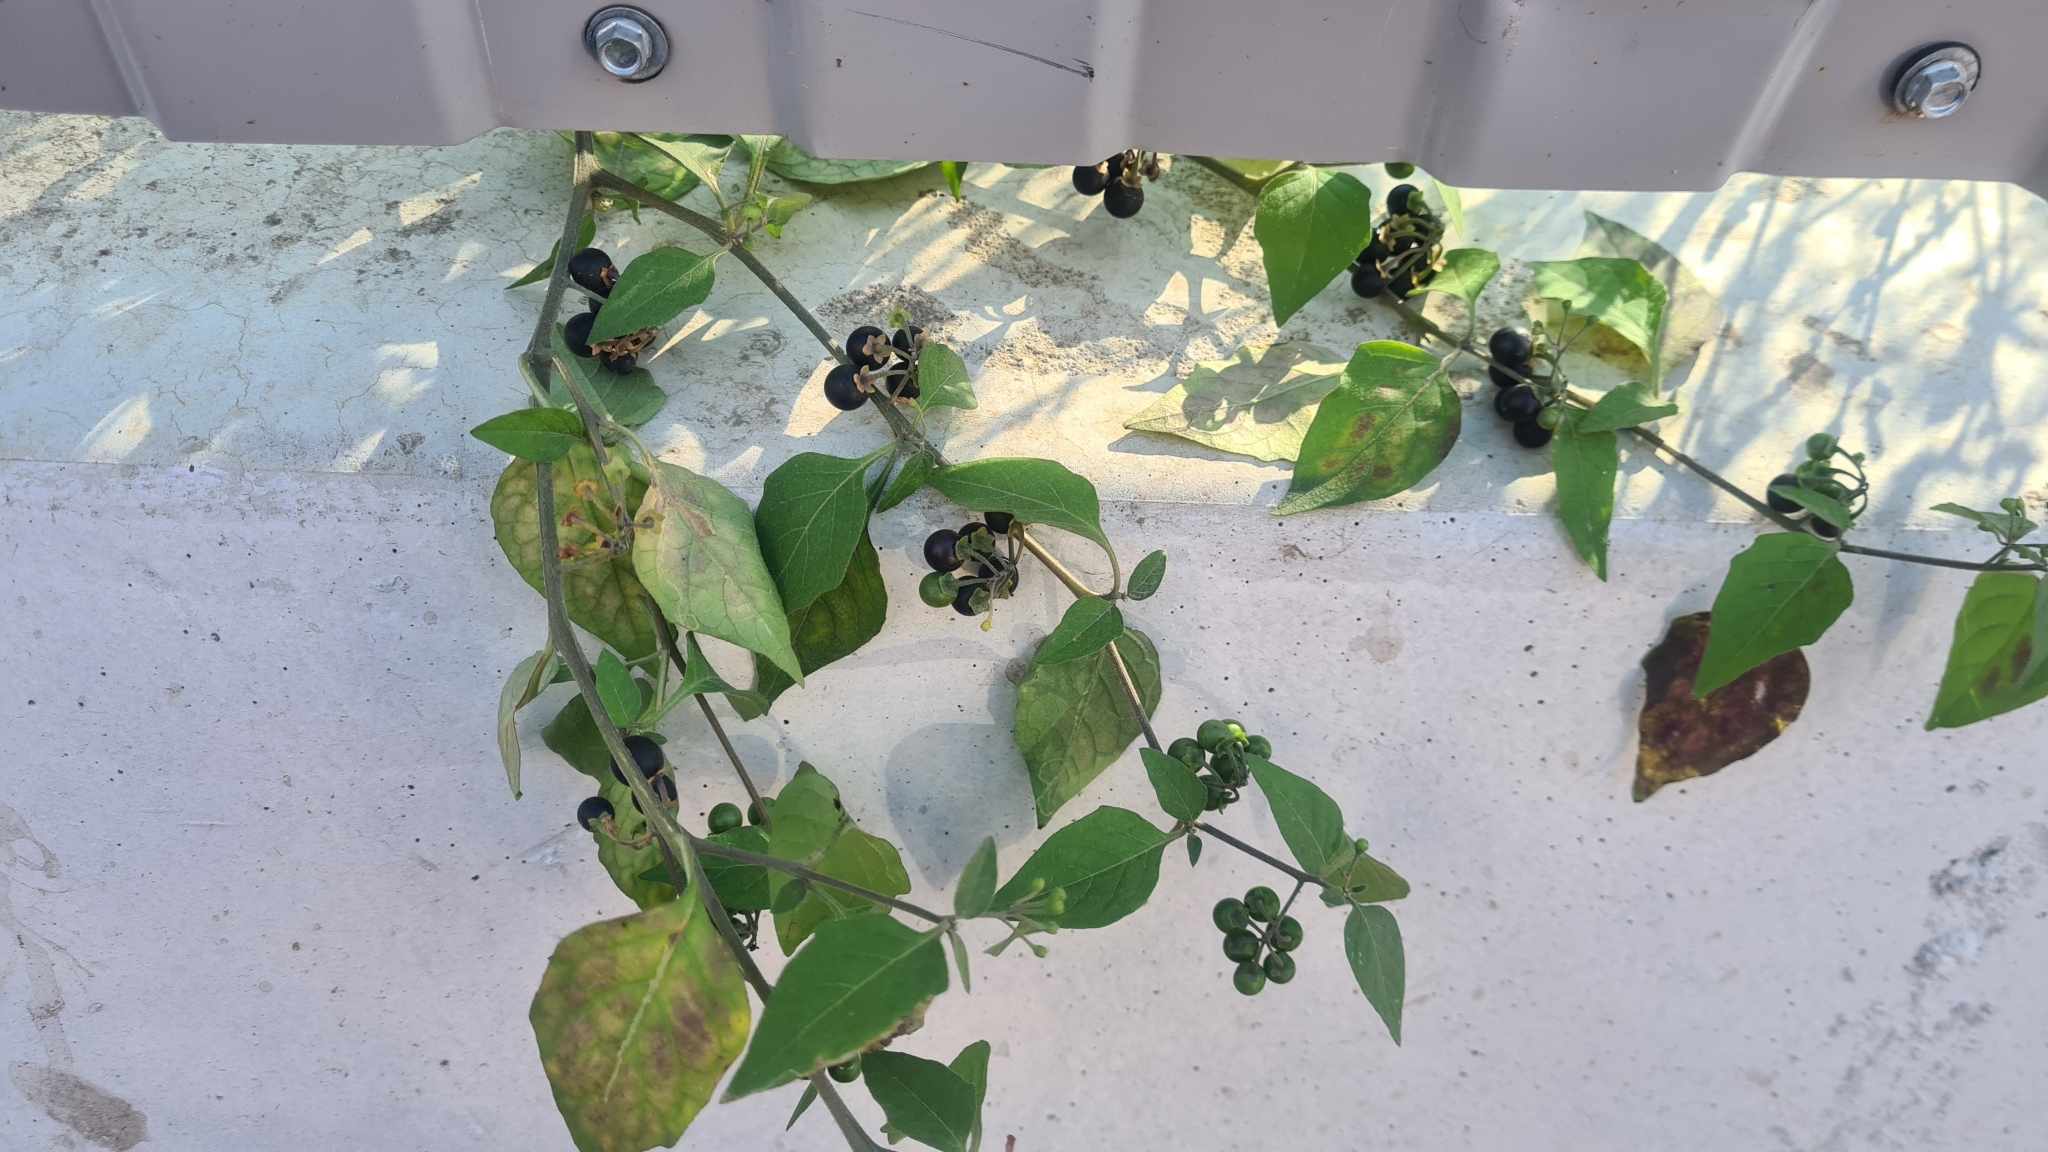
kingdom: Plantae
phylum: Tracheophyta
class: Magnoliopsida
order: Solanales
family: Solanaceae
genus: Solanum
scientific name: Solanum nigrum
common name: Black nightshade
